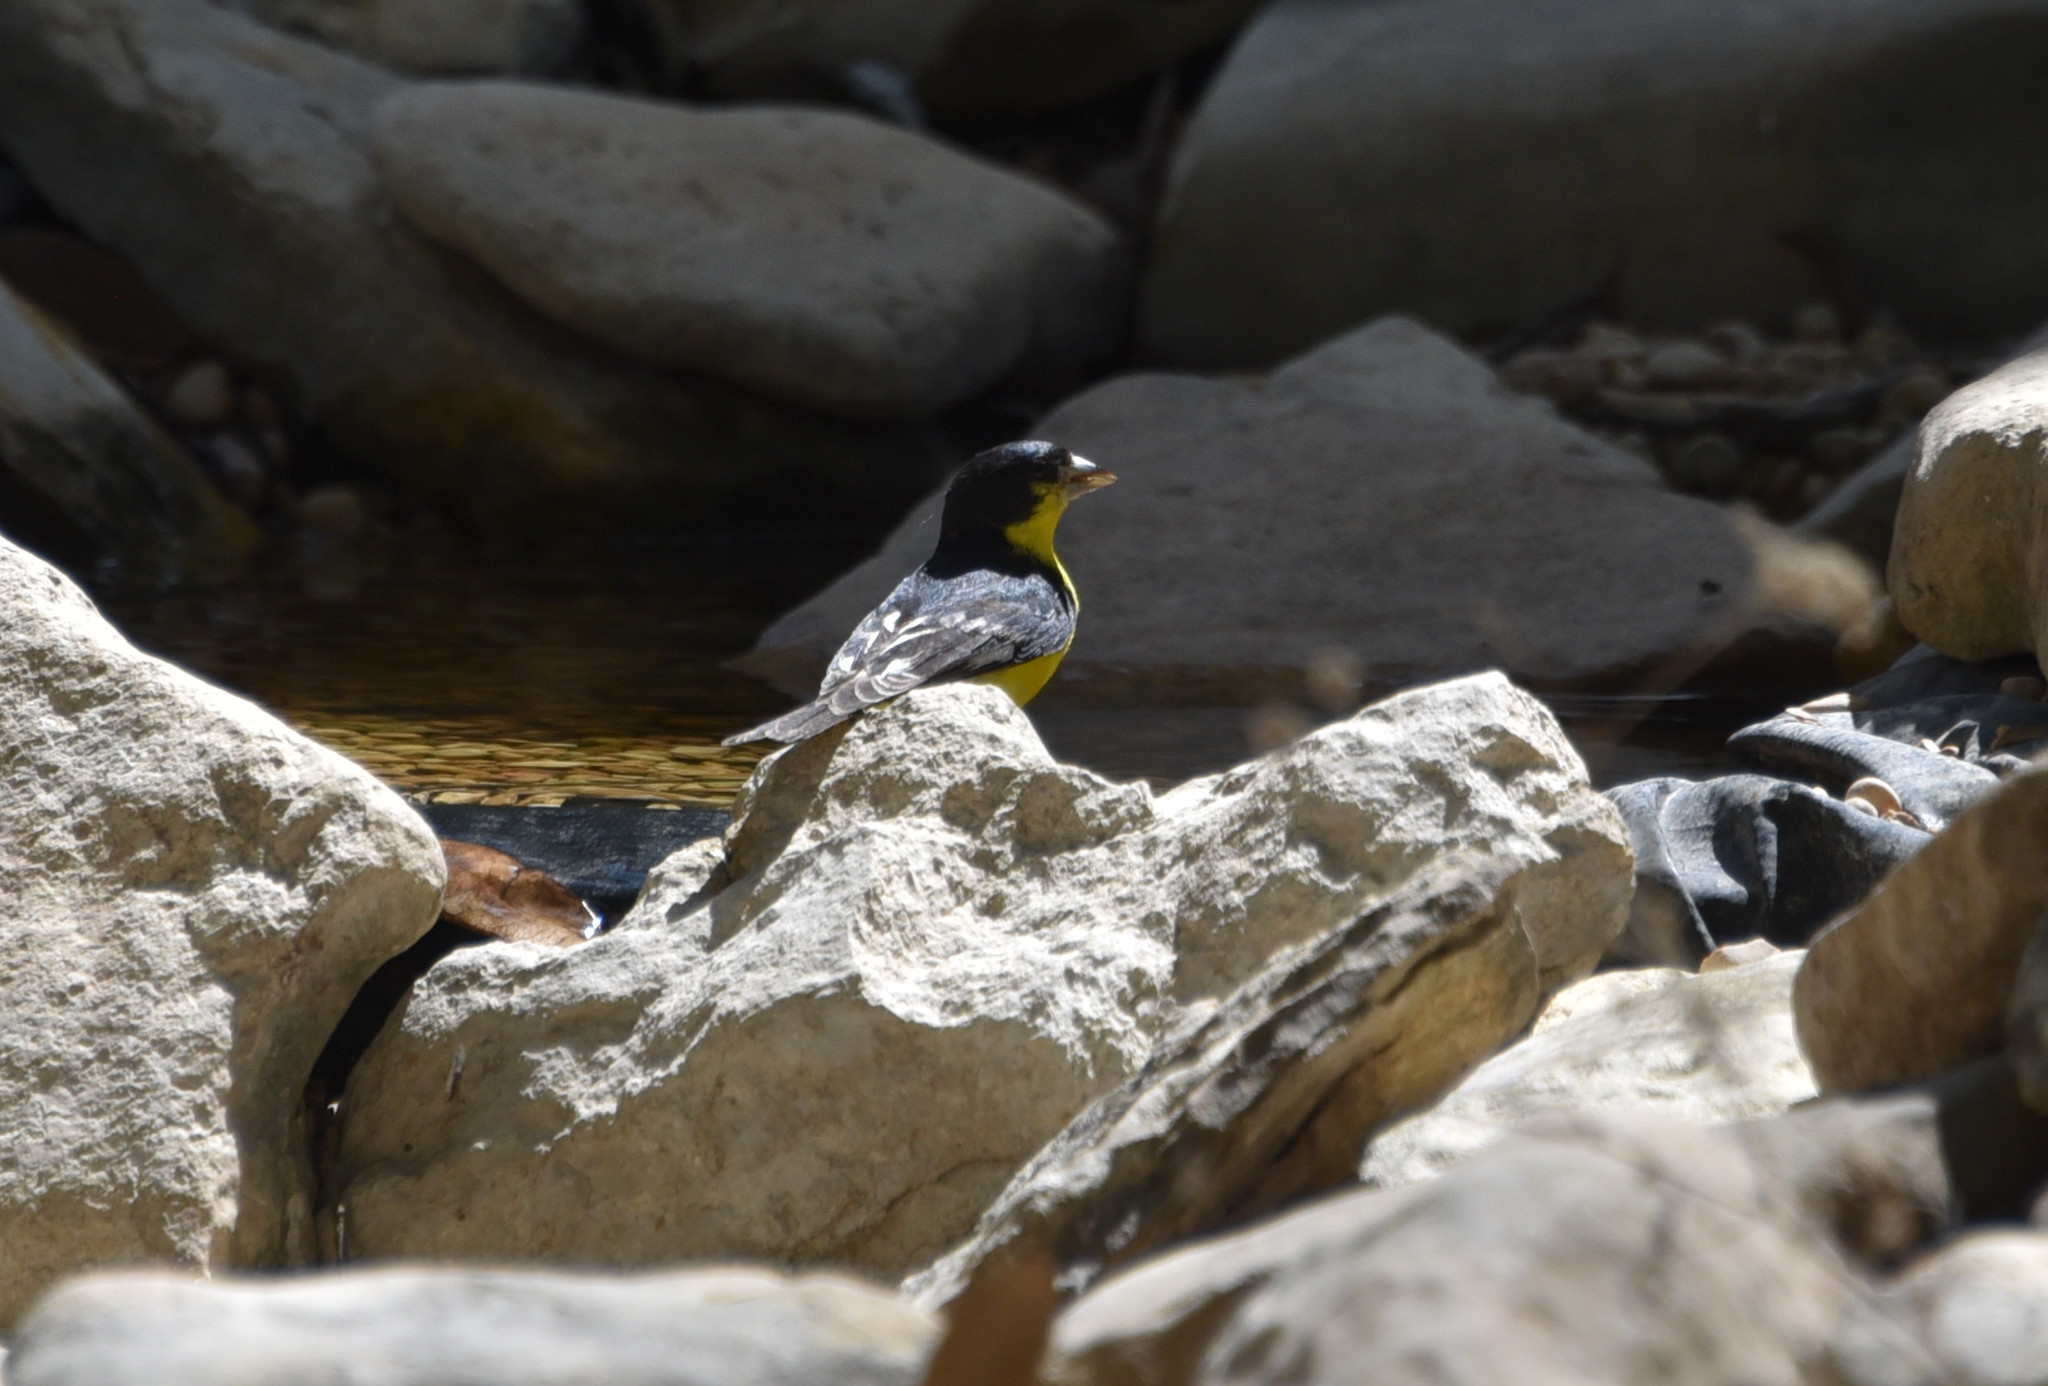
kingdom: Animalia
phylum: Chordata
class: Aves
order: Passeriformes
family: Fringillidae
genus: Spinus
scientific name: Spinus psaltria
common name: Lesser goldfinch
